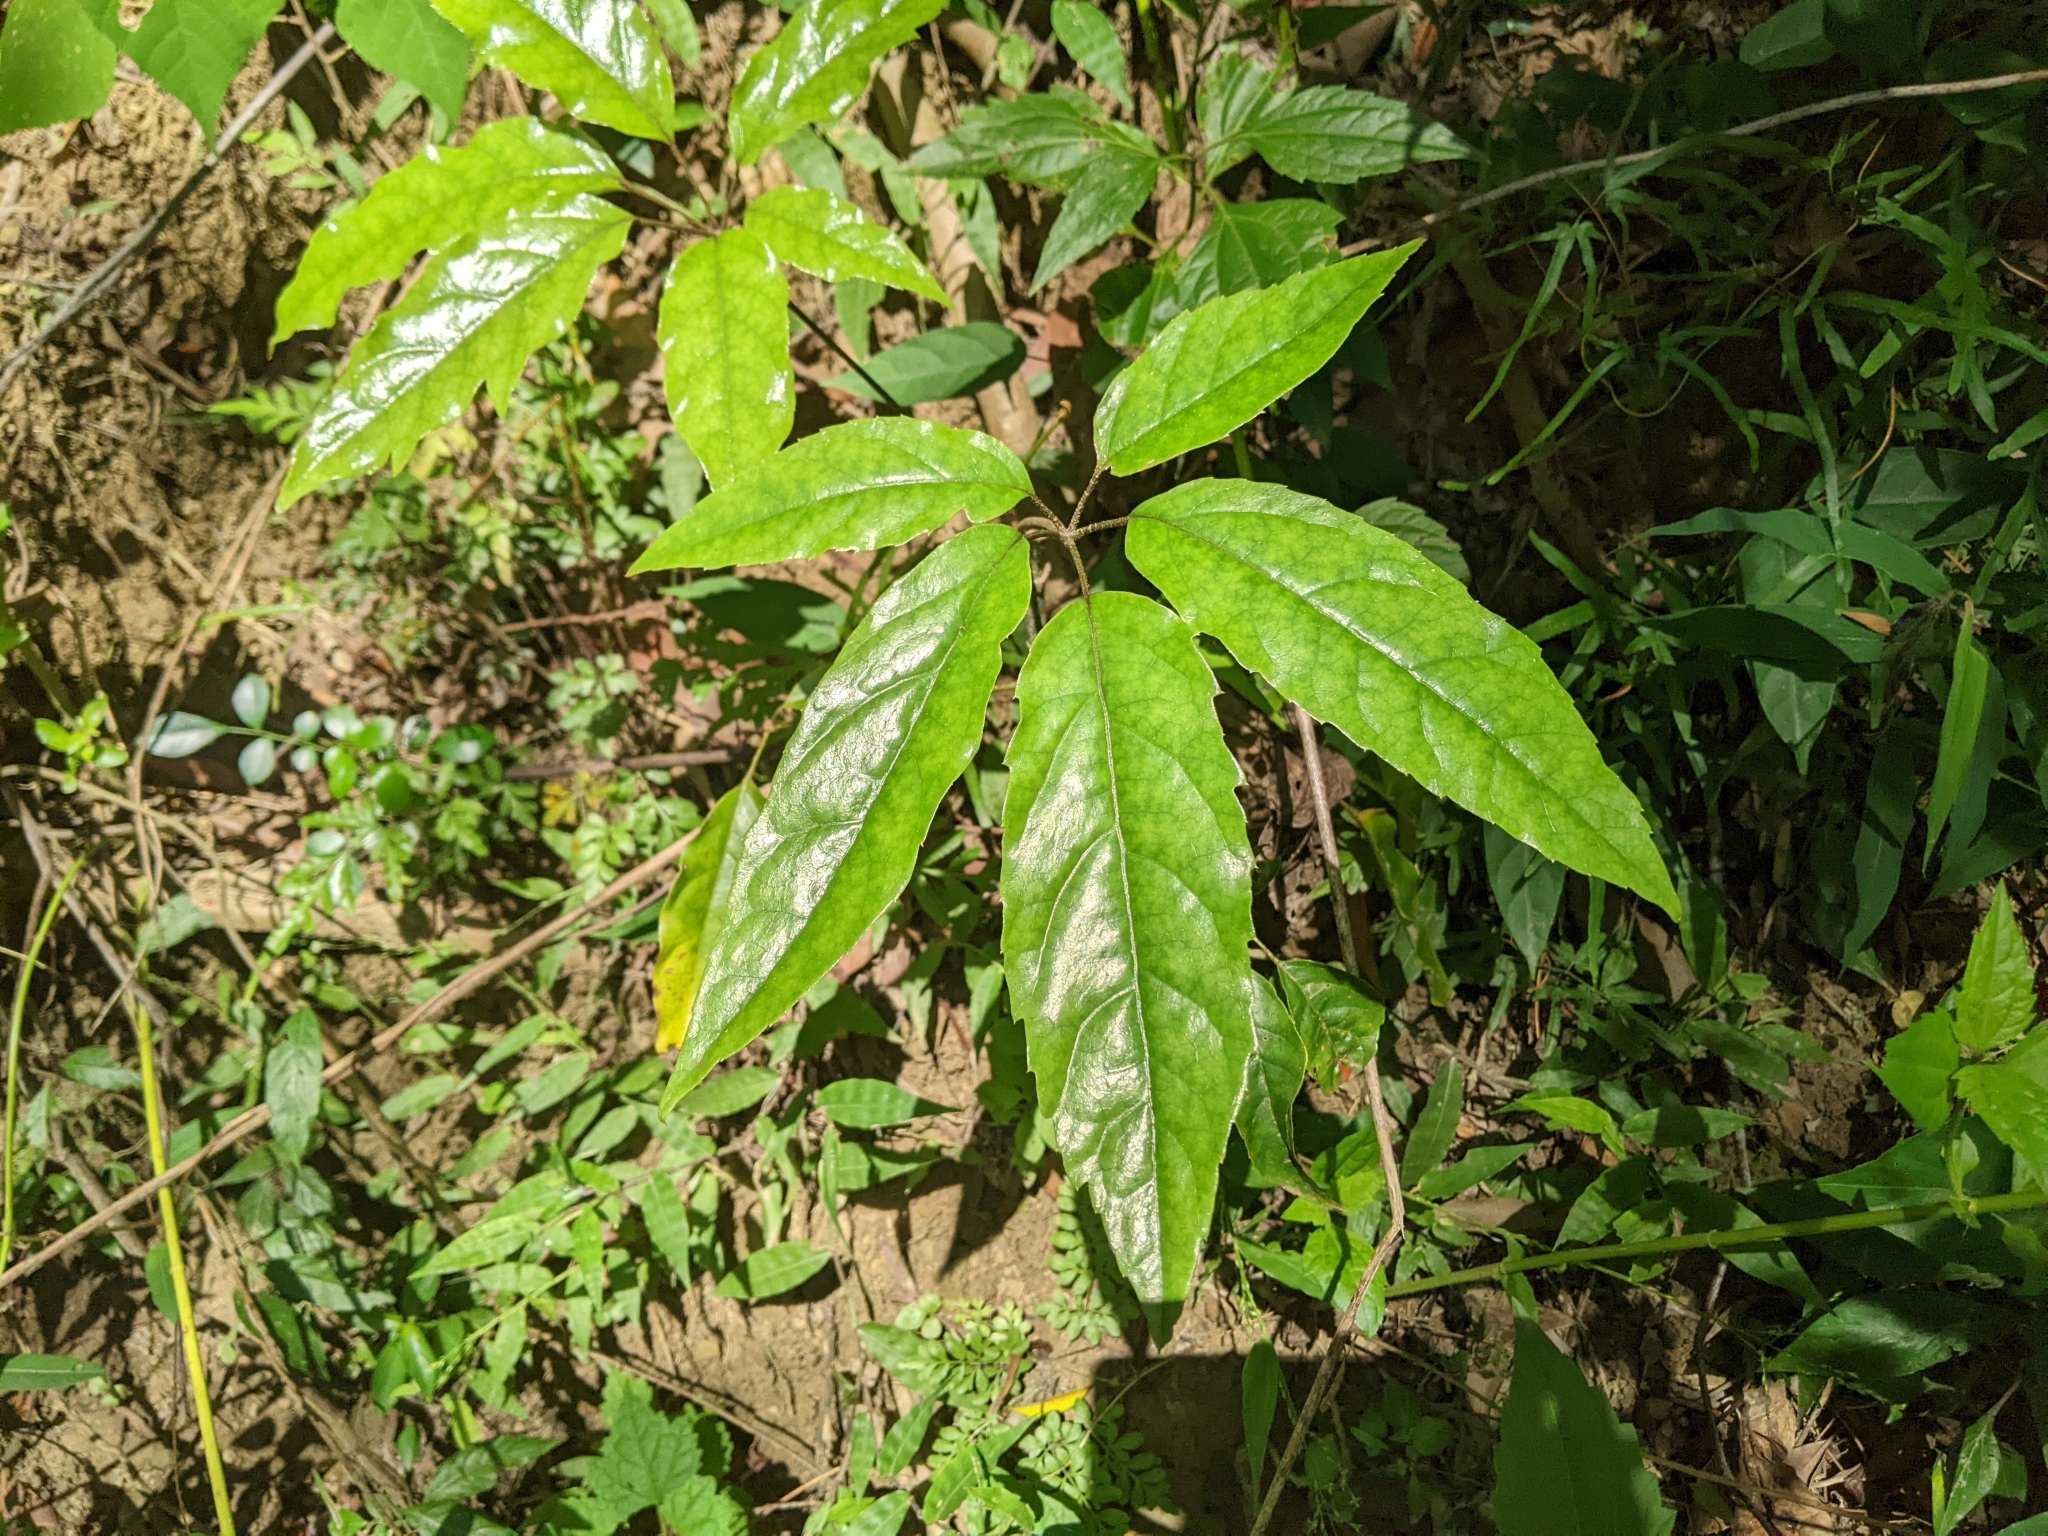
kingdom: Plantae
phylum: Tracheophyta
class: Magnoliopsida
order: Apiales
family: Araliaceae
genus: Heptapleurum
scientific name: Heptapleurum heptaphyllum
